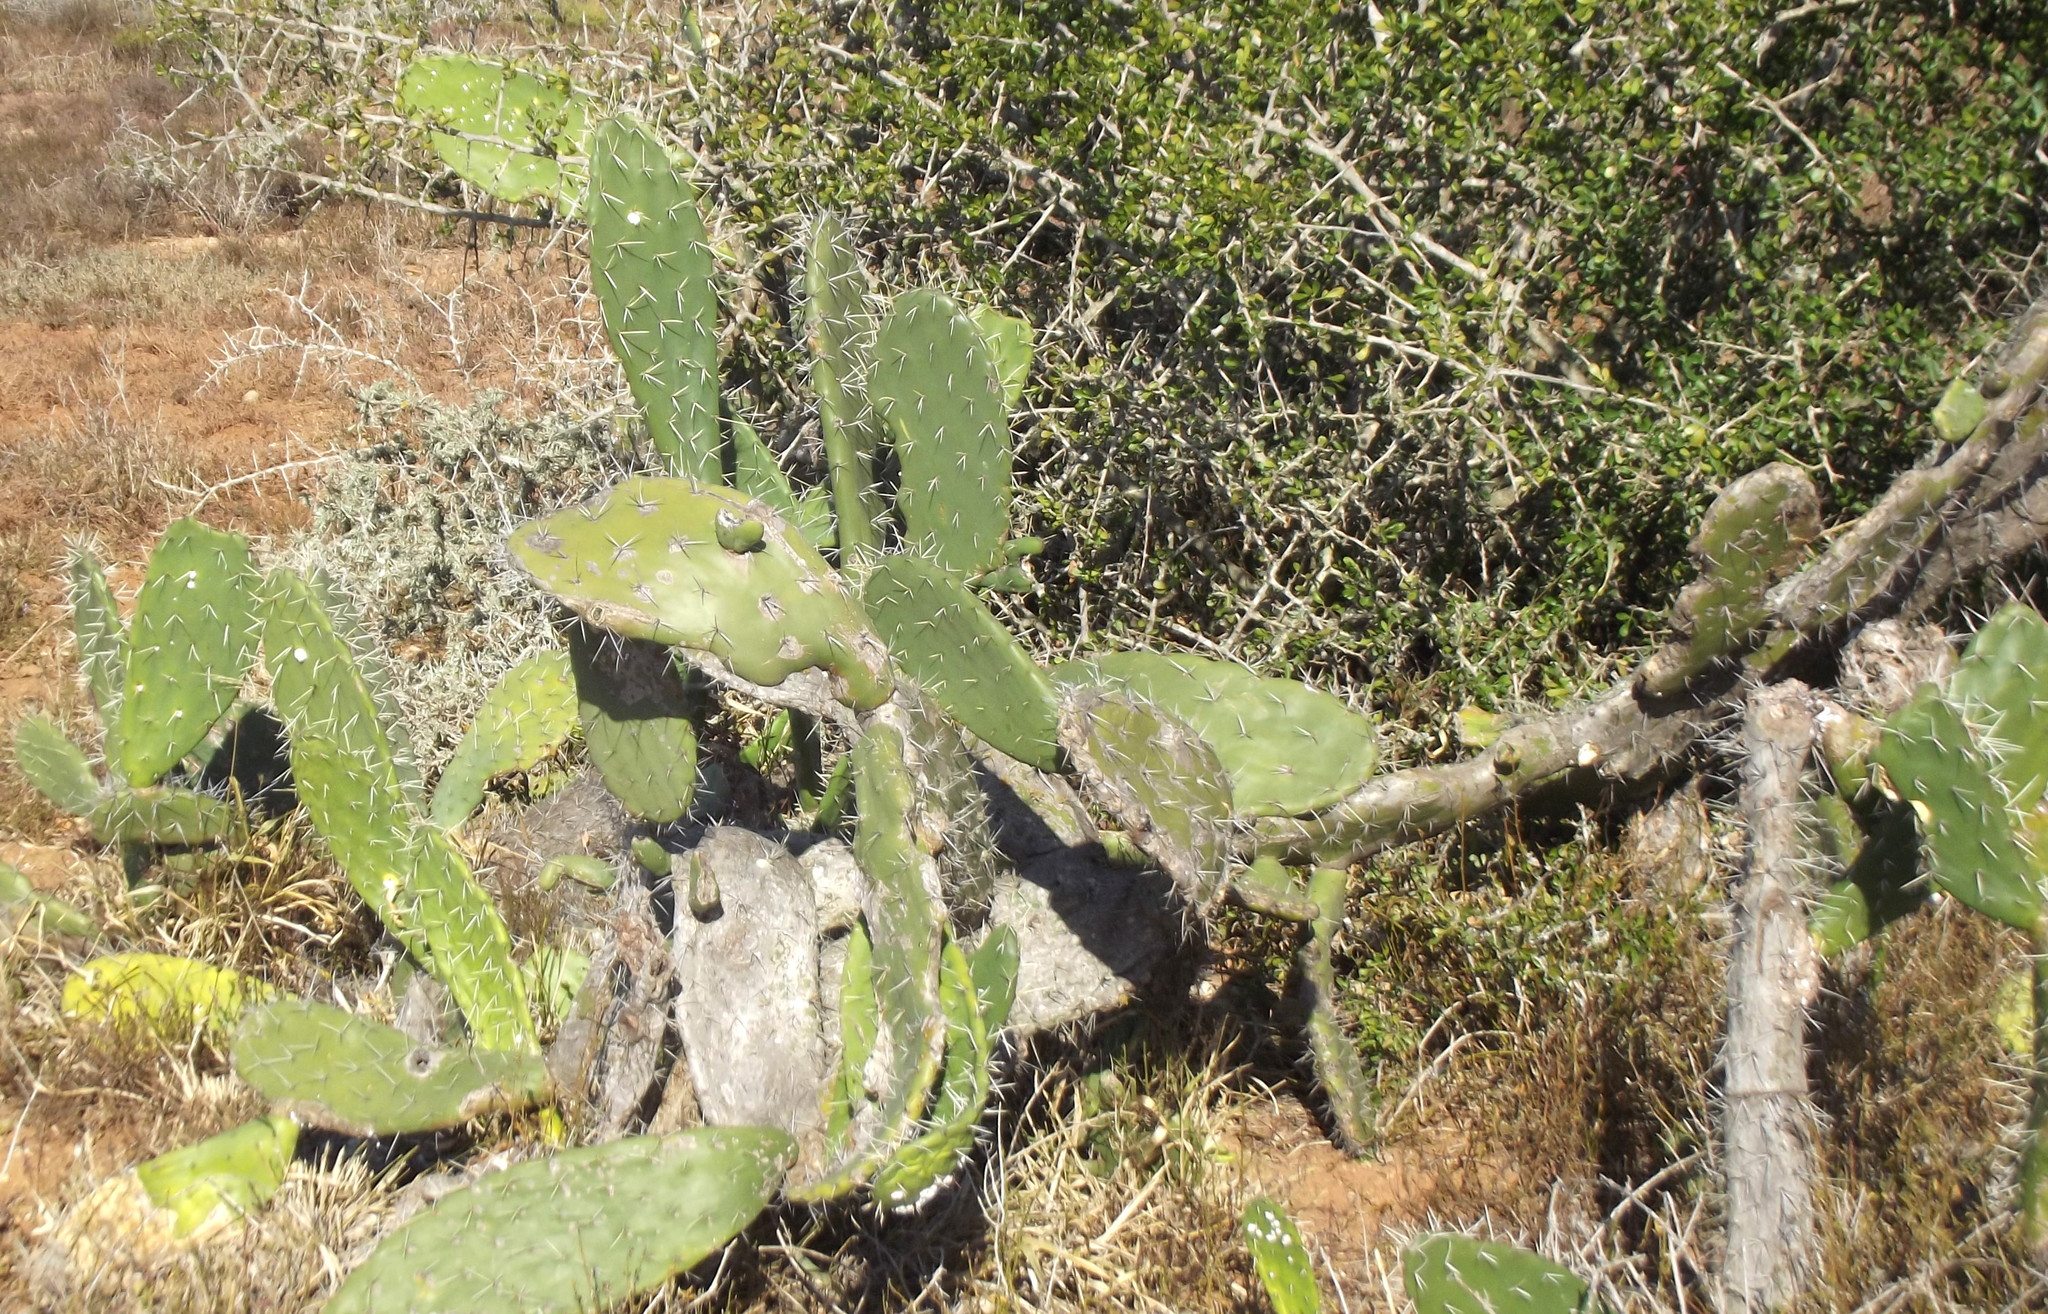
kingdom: Plantae
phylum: Tracheophyta
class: Magnoliopsida
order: Caryophyllales
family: Cactaceae
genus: Opuntia
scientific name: Opuntia ficus-indica
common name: Barbary fig
